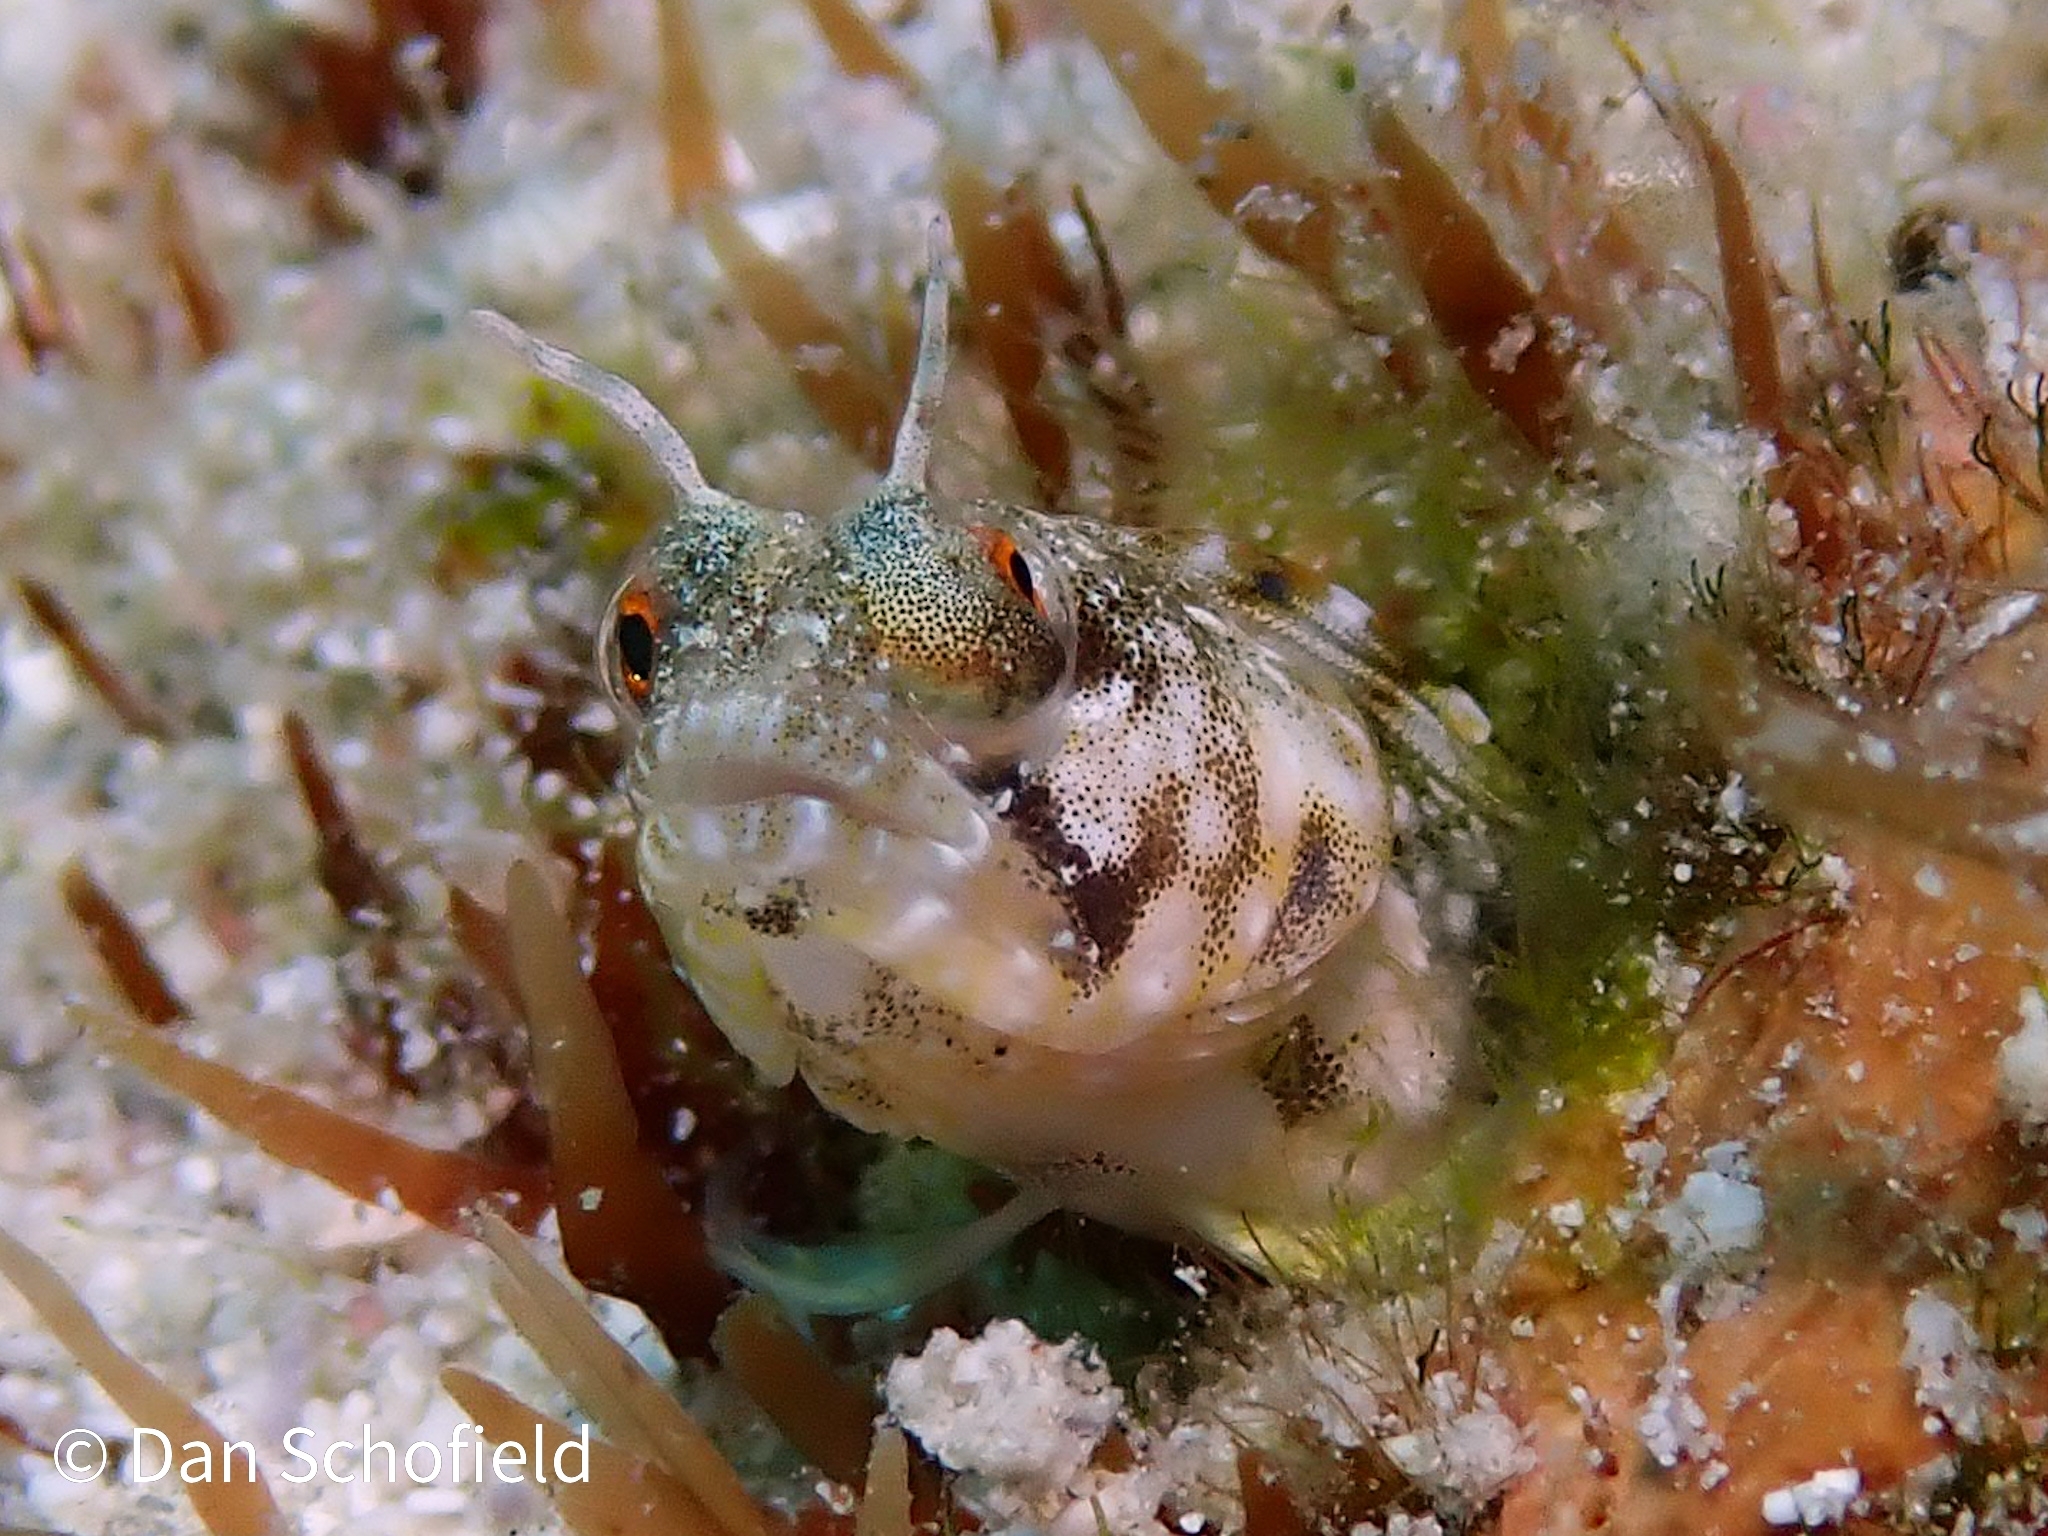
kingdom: Animalia
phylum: Chordata
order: Perciformes
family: Chaenopsidae
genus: Emblemaria
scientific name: Emblemaria pandionis
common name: Sailfin blenny
